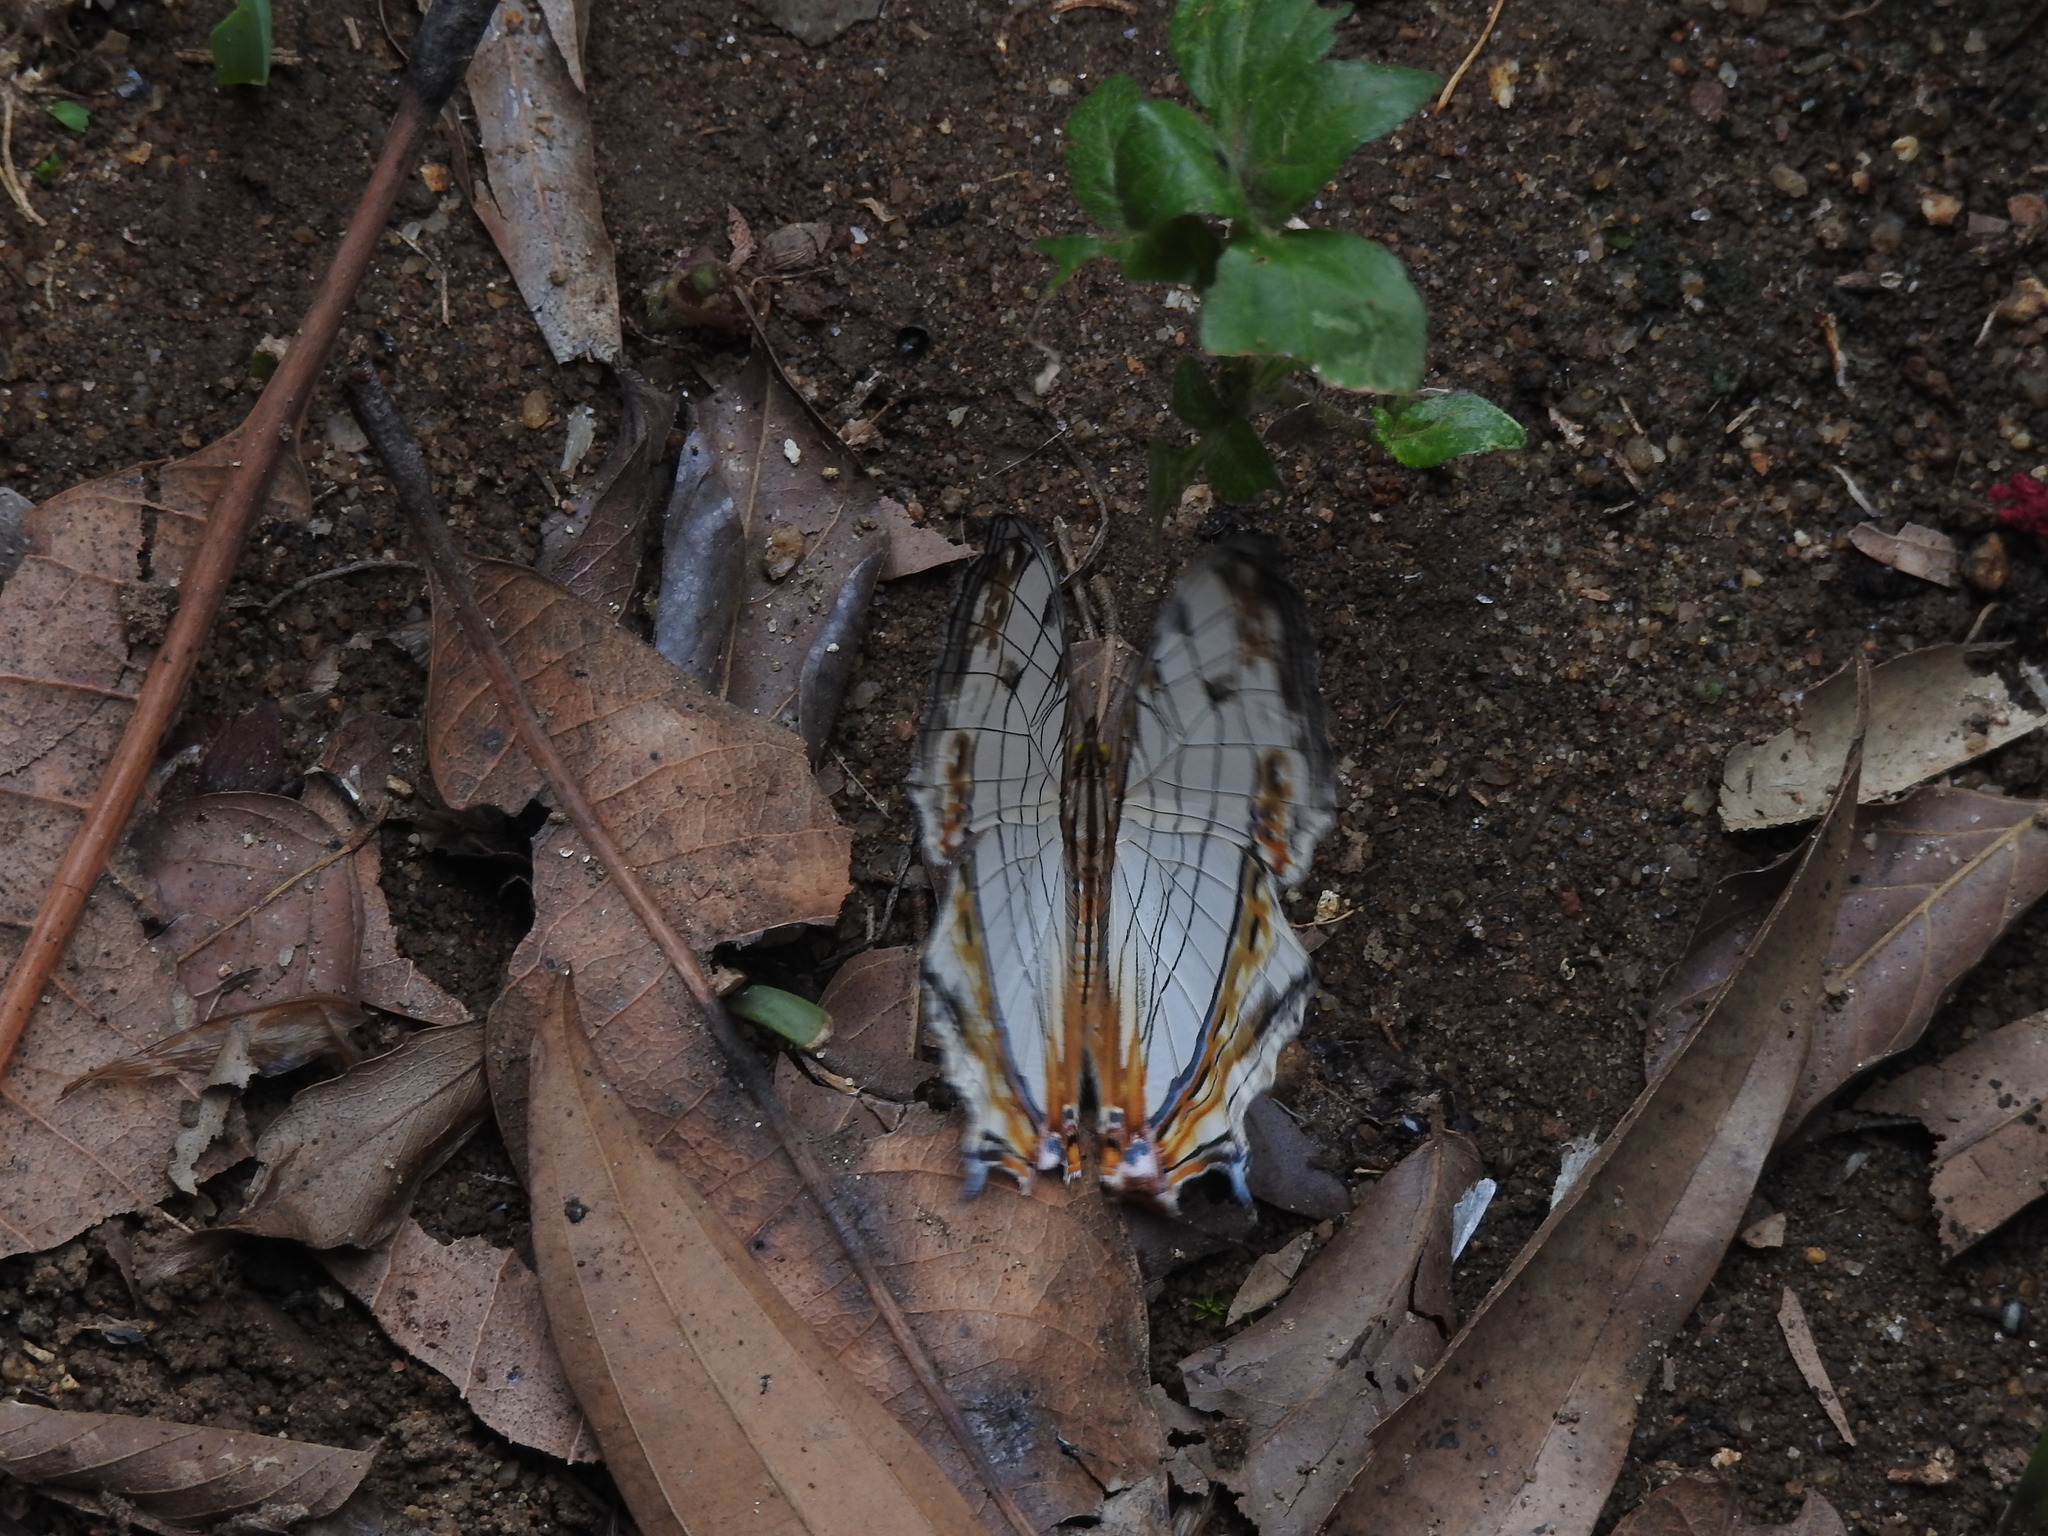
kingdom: Animalia
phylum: Arthropoda
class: Insecta
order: Lepidoptera
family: Nymphalidae
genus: Cyrestis
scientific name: Cyrestis thyodamas
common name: Common mapwing
